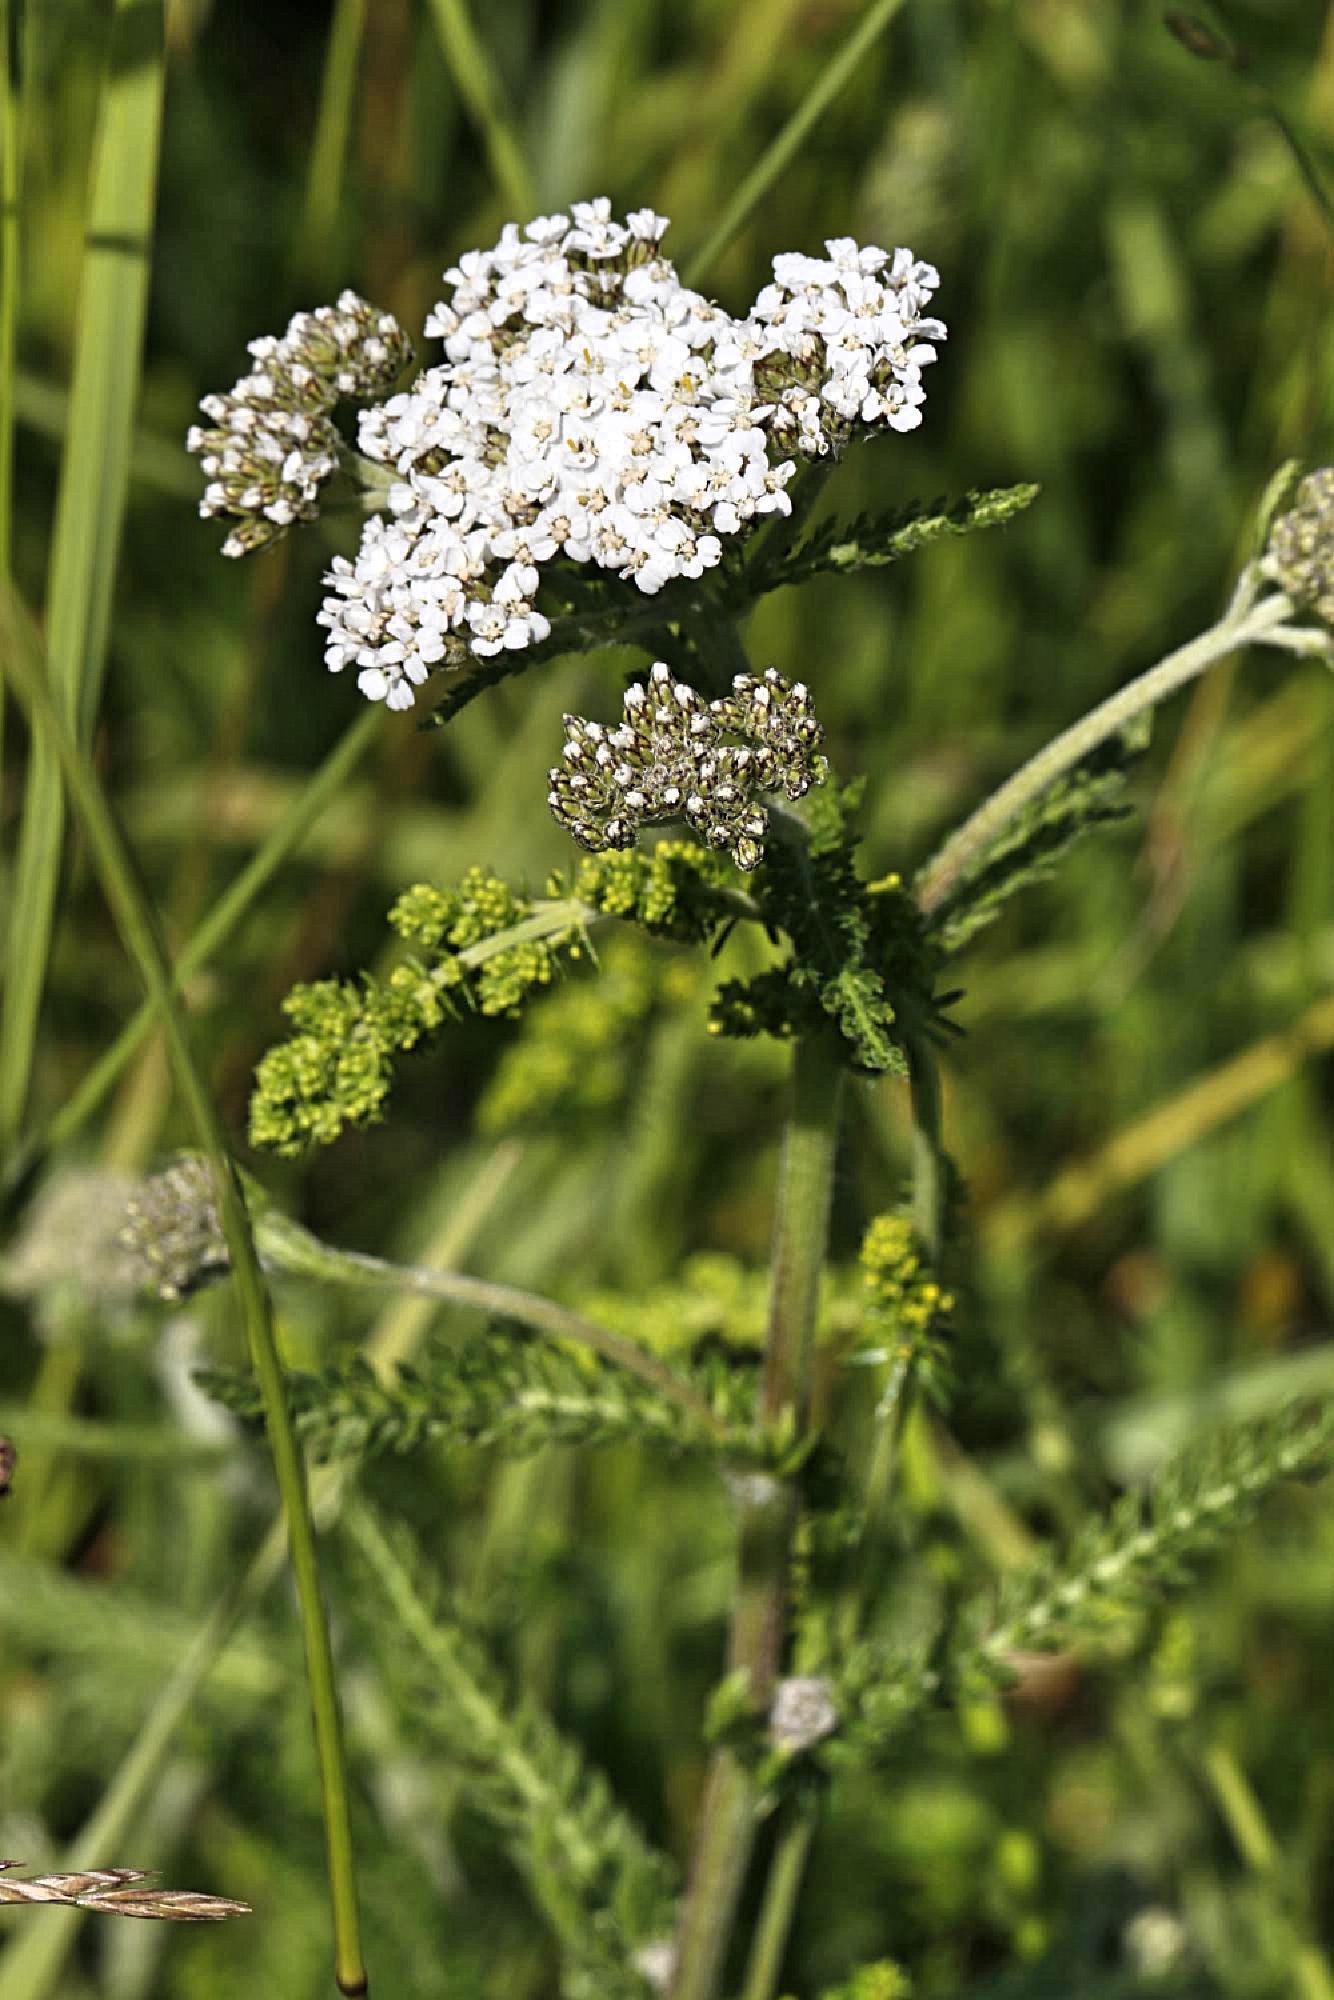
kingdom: Plantae
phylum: Tracheophyta
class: Magnoliopsida
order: Asterales
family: Asteraceae
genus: Achillea
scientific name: Achillea millefolium
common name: Yarrow
